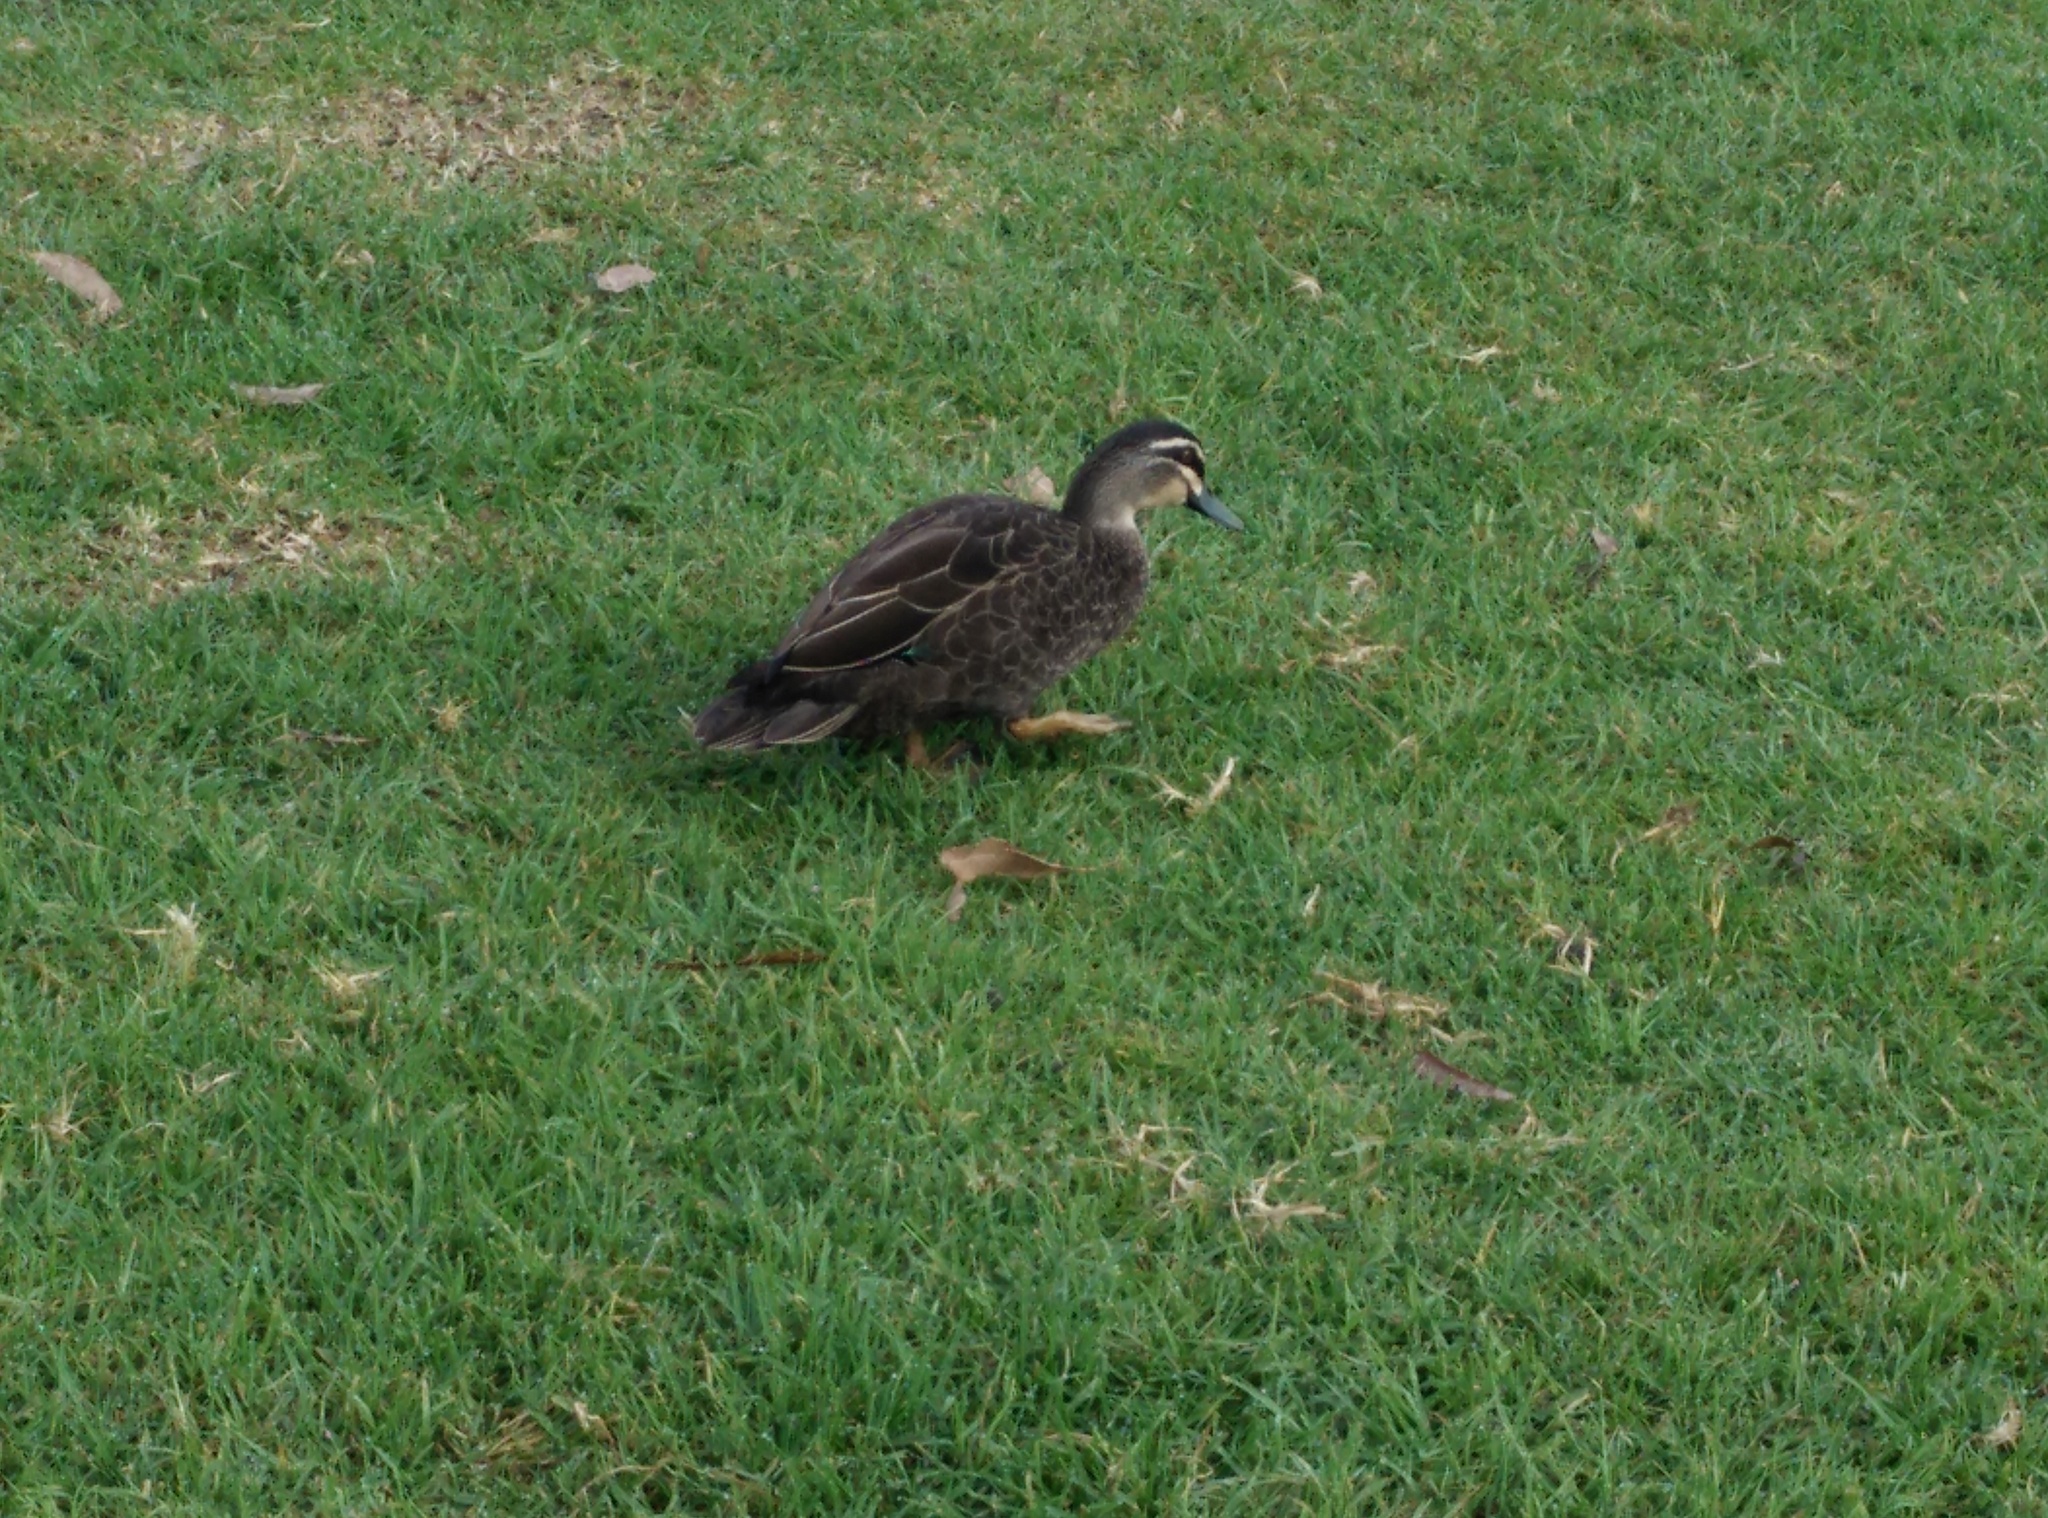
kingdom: Animalia
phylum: Chordata
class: Aves
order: Anseriformes
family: Anatidae
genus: Anas
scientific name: Anas superciliosa
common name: Pacific black duck
